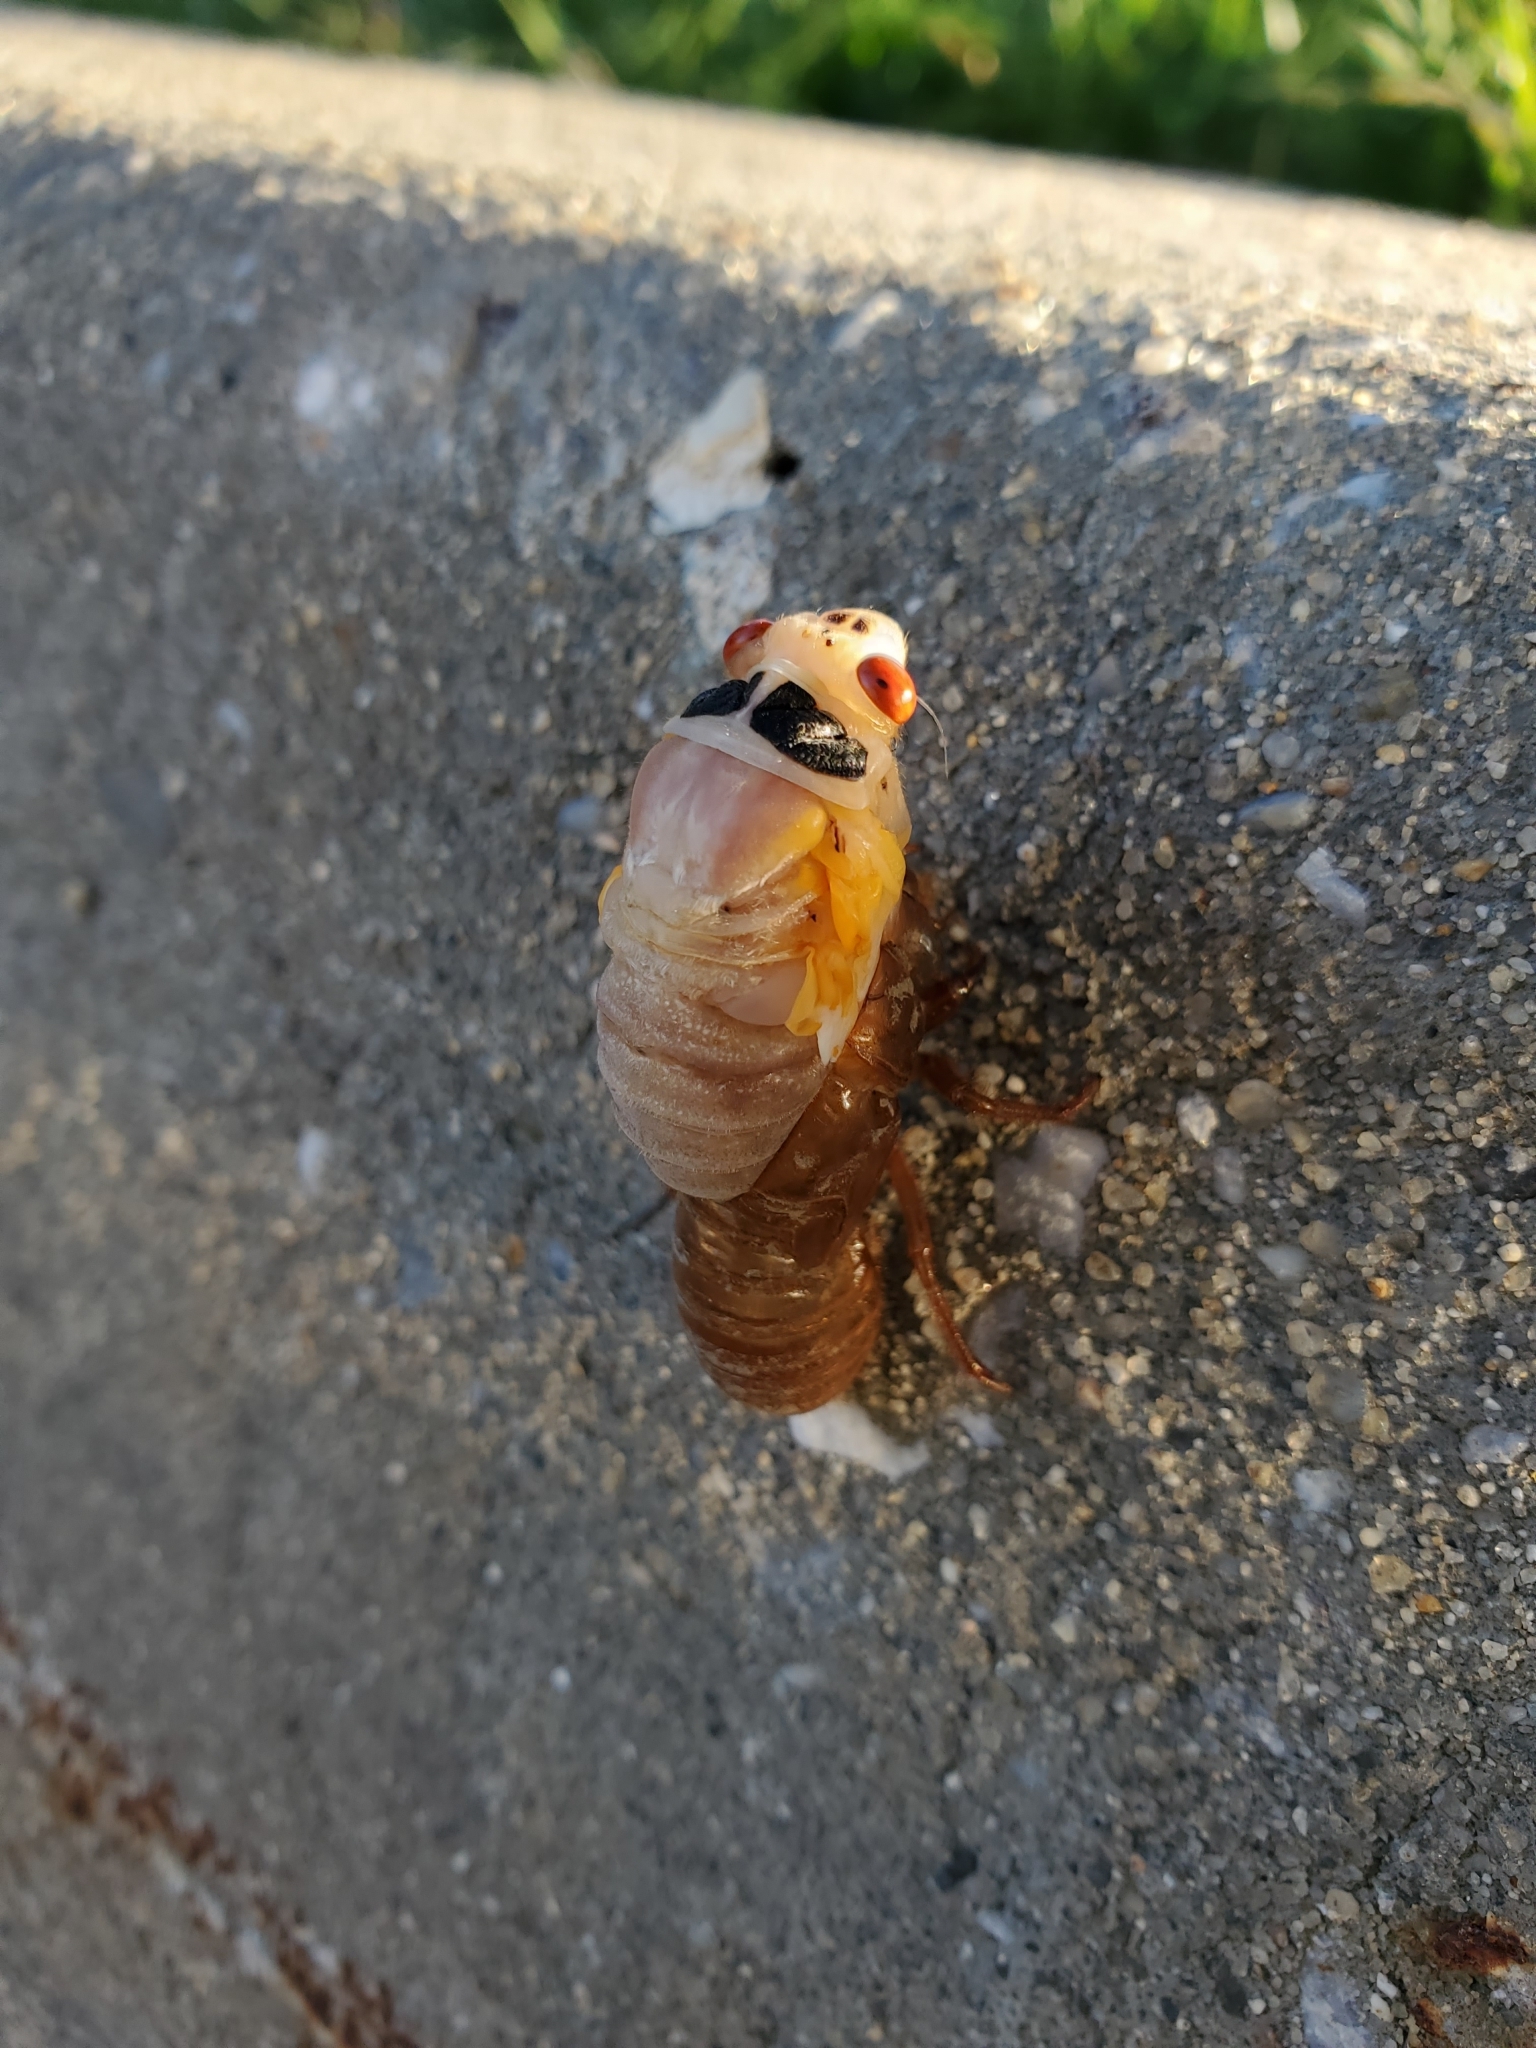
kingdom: Animalia
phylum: Arthropoda
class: Insecta
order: Hemiptera
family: Cicadidae
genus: Magicicada
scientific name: Magicicada
